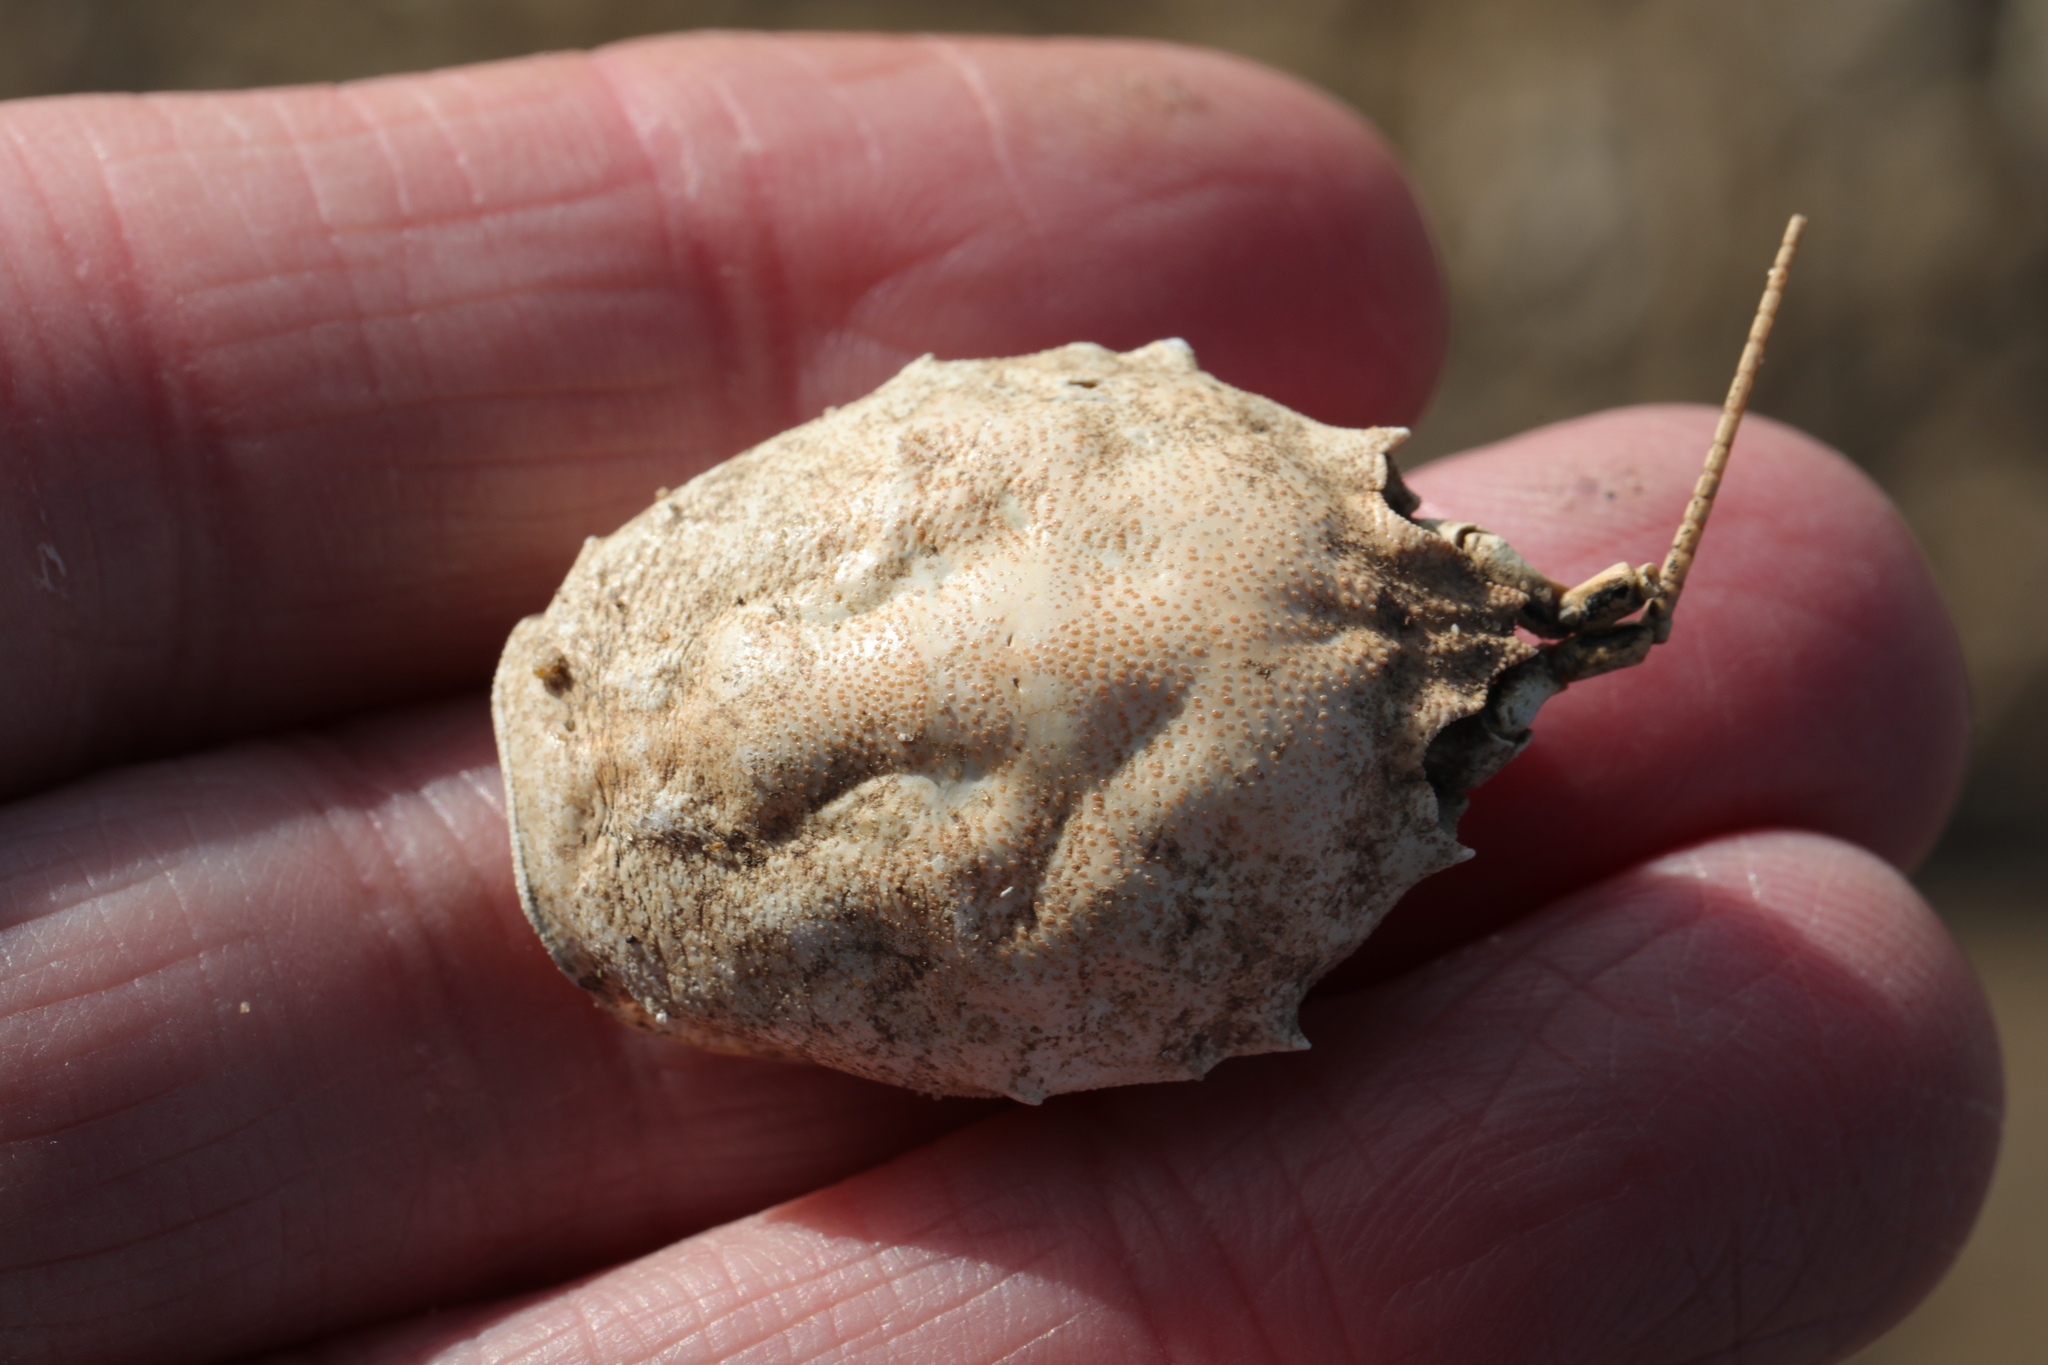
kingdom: Animalia
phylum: Arthropoda
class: Malacostraca
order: Decapoda
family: Corystidae
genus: Corystes
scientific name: Corystes cassivelaunus
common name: Masked crab
